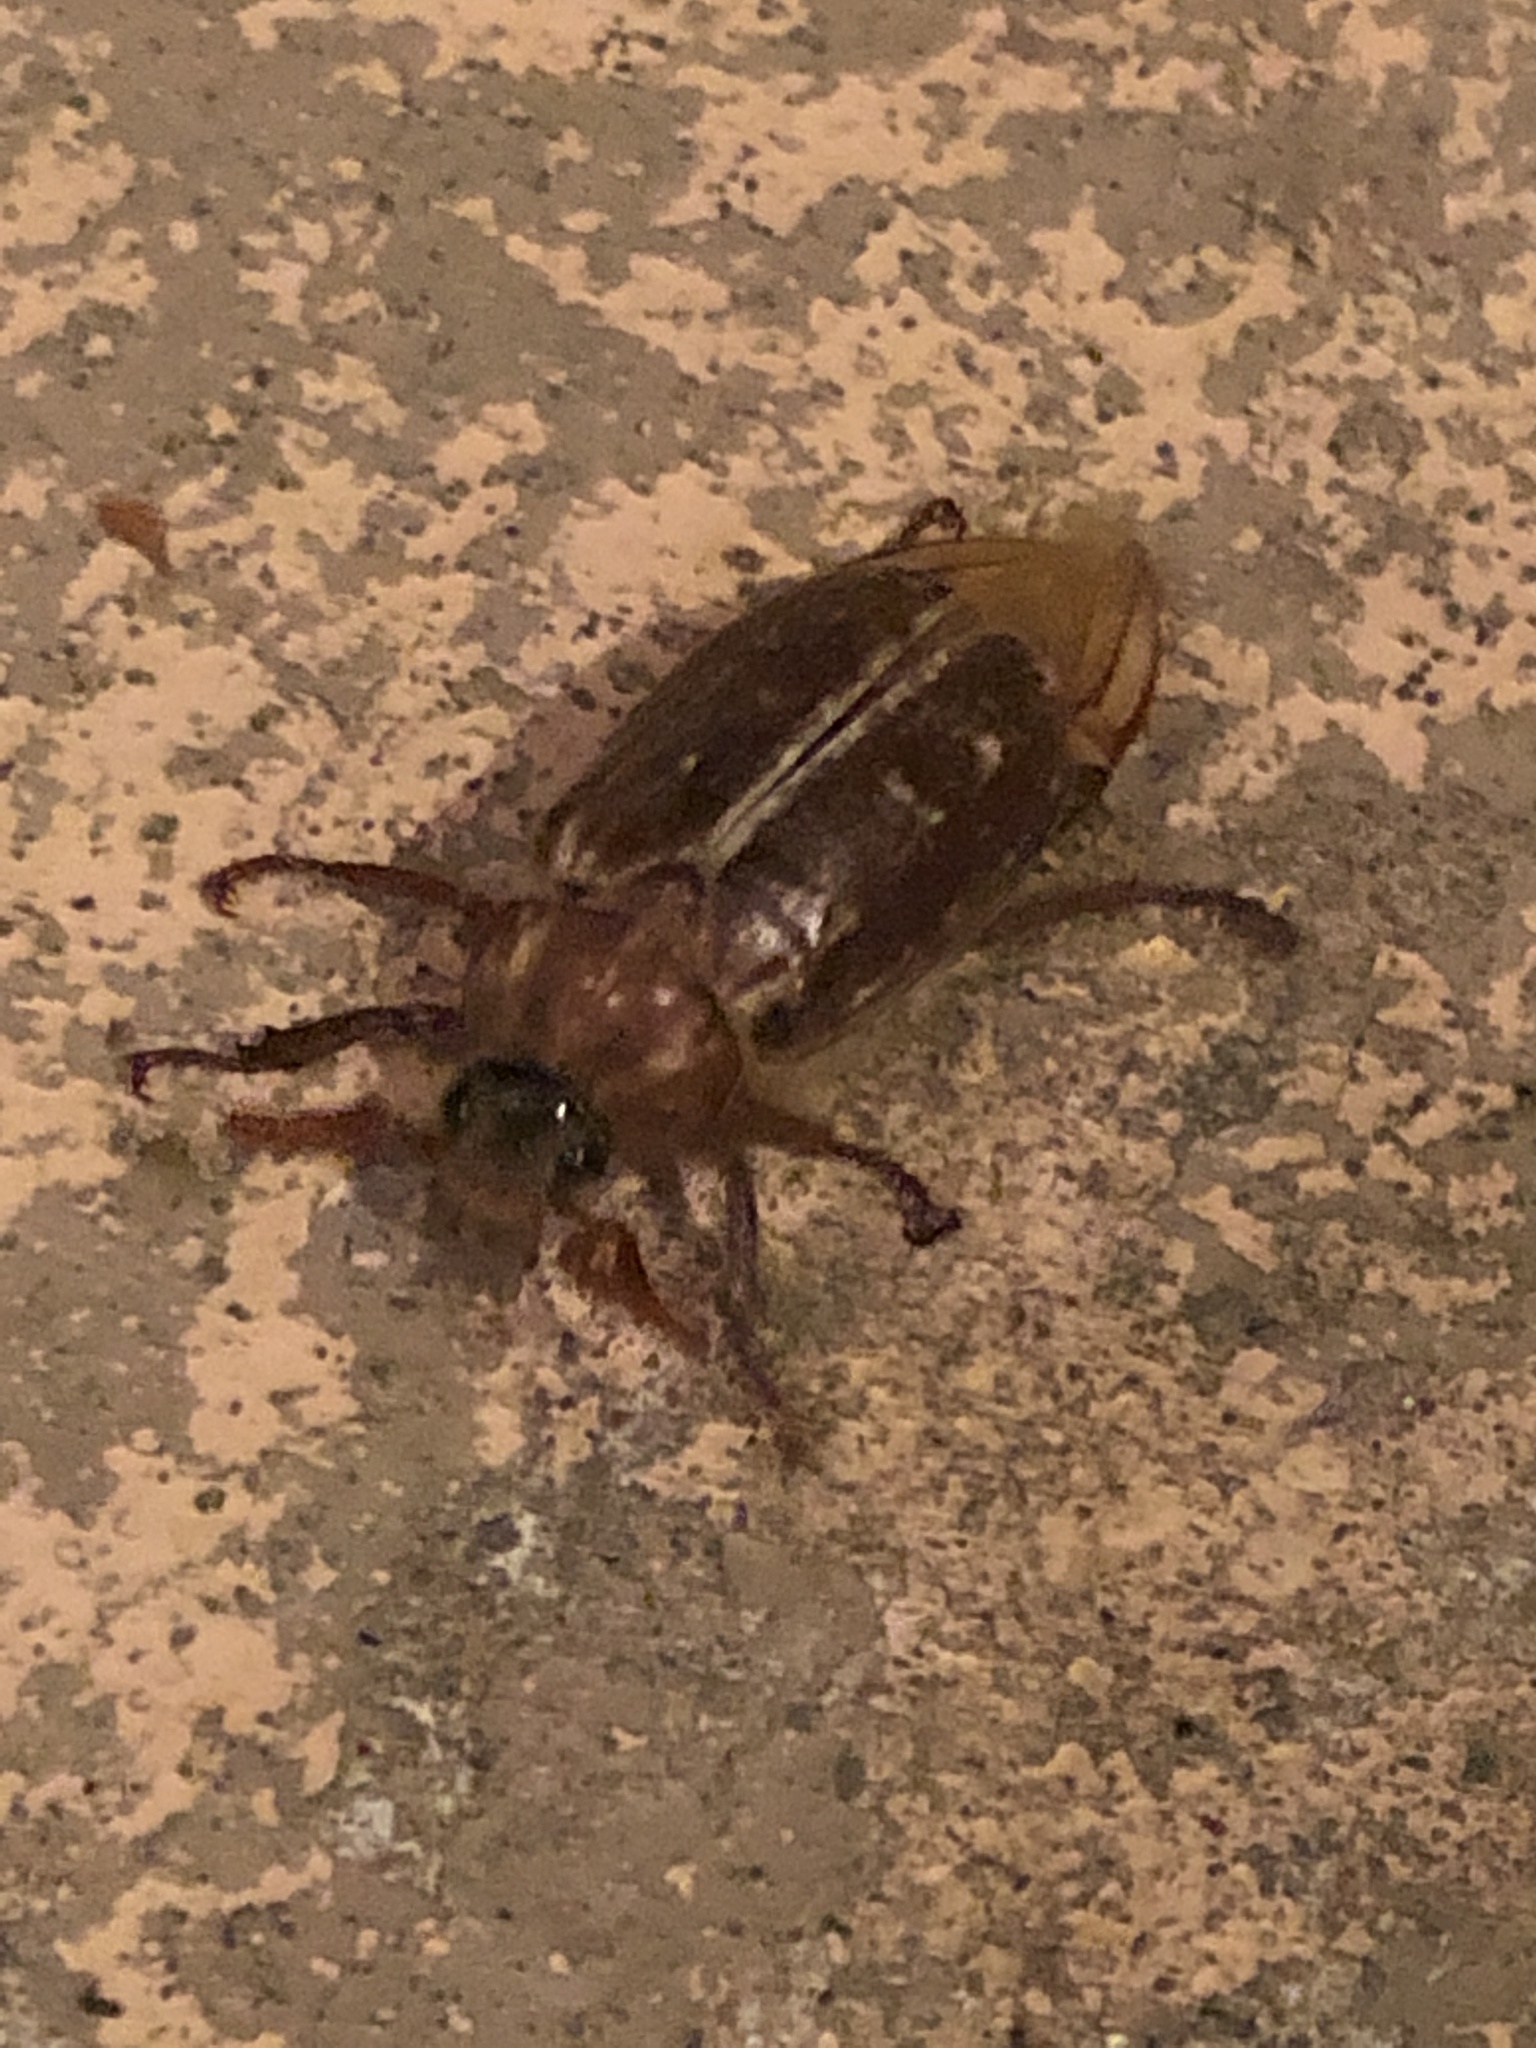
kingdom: Animalia
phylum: Arthropoda
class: Insecta
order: Coleoptera
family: Scarabaeidae
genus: Polyphylla
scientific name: Polyphylla variolosa
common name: Variegated june beetle
